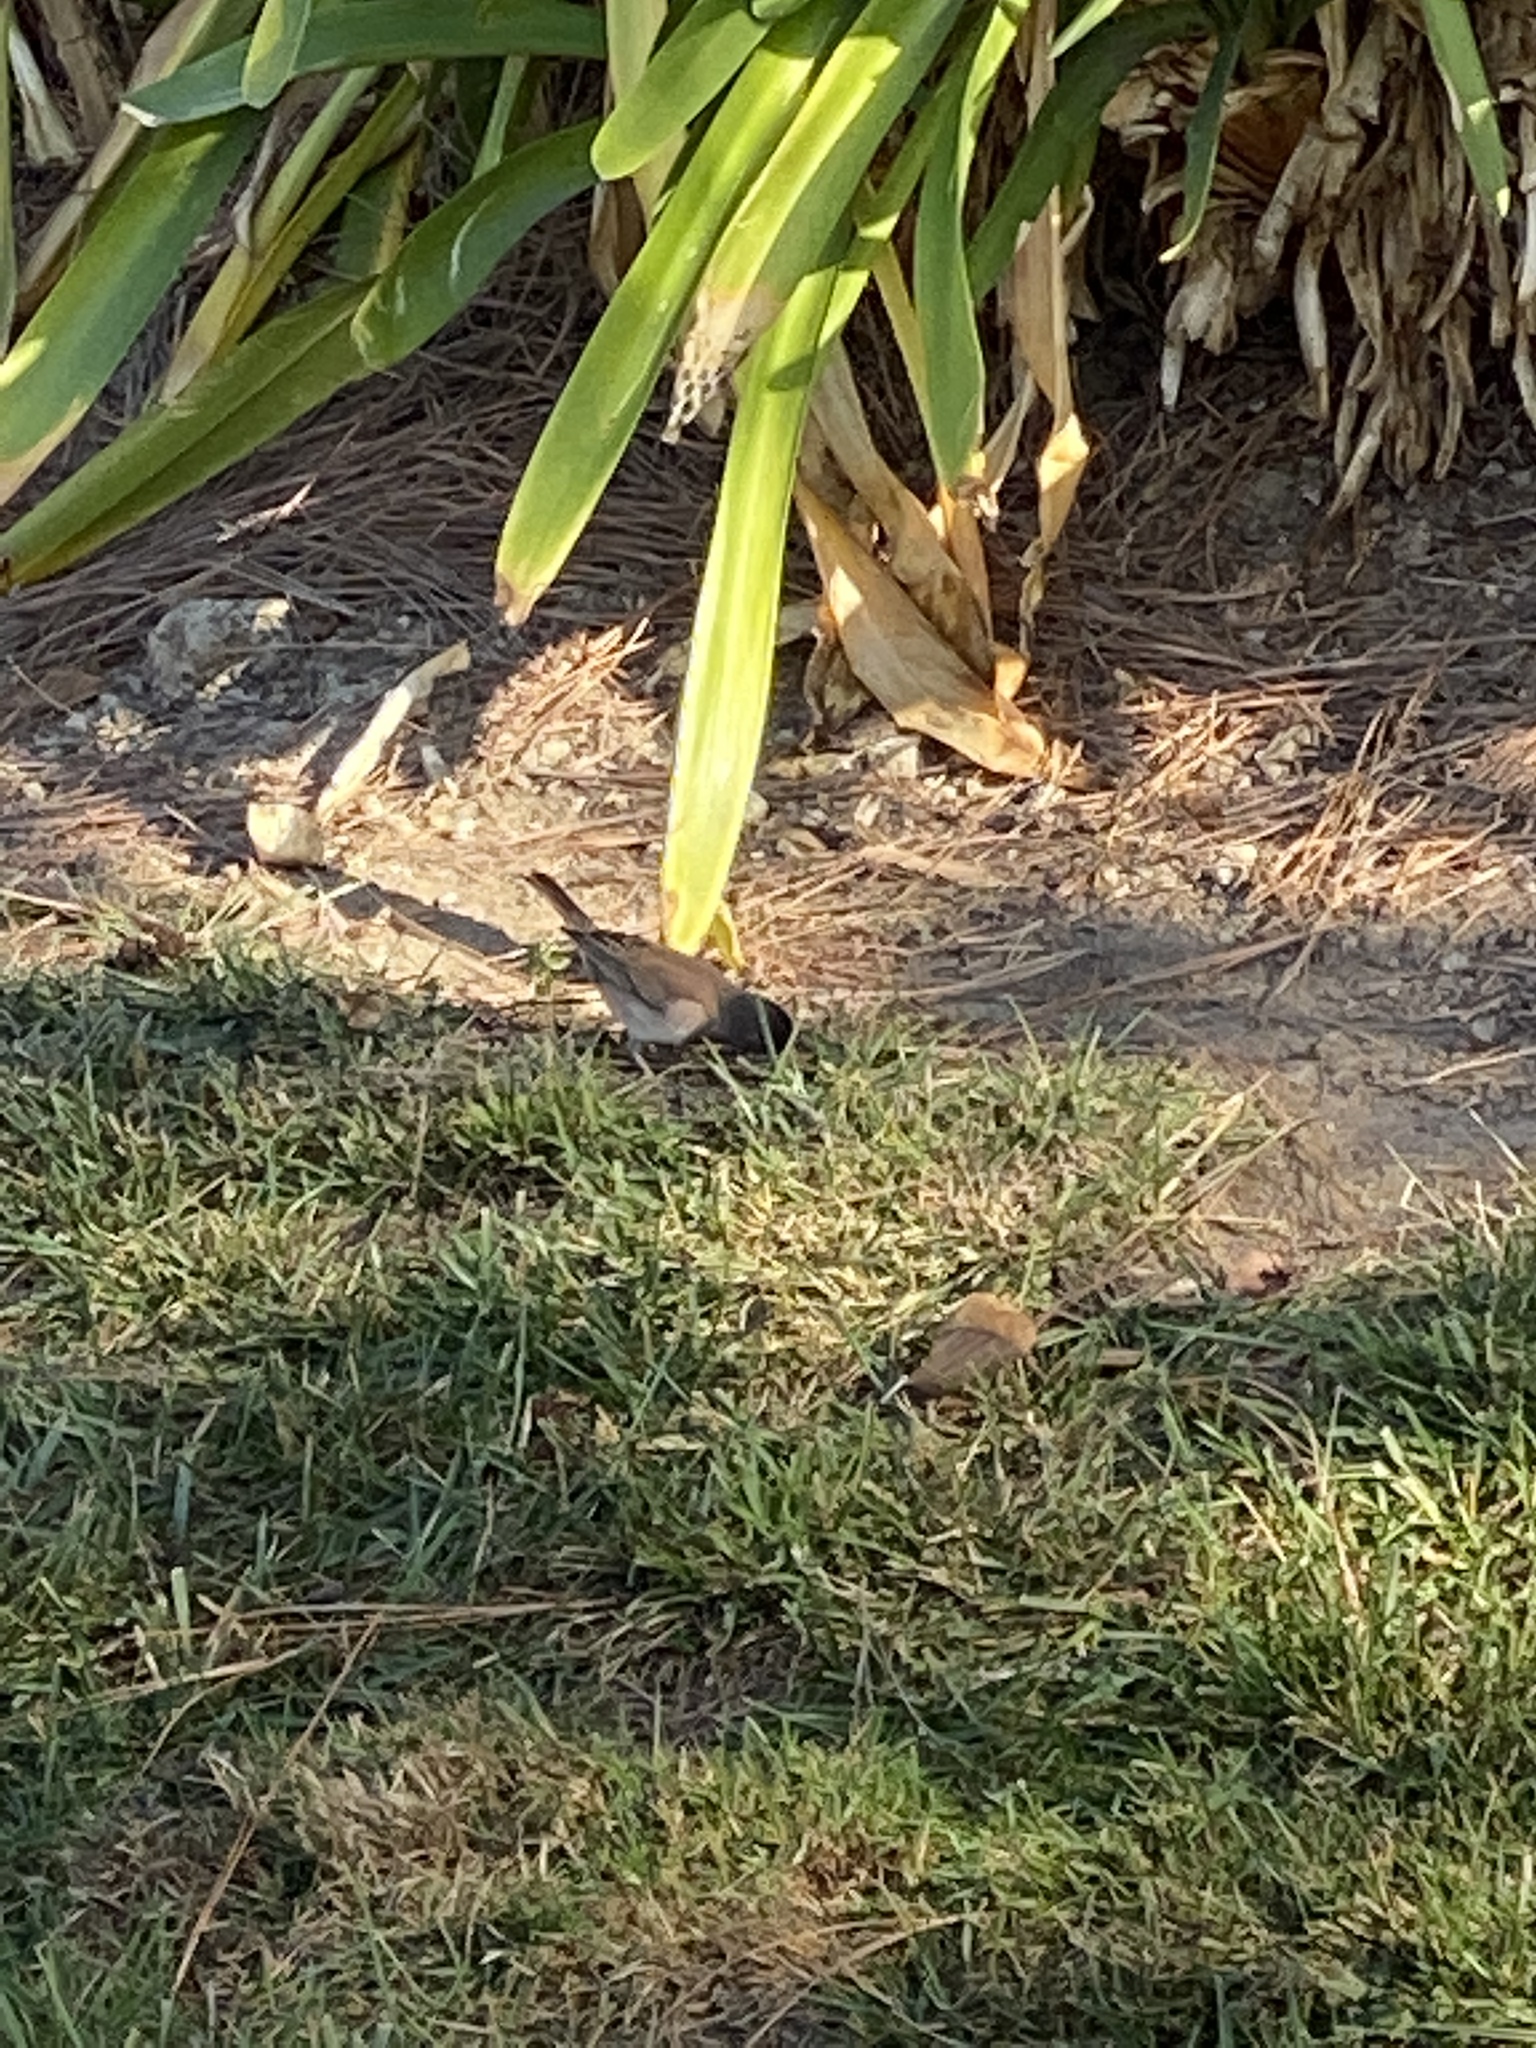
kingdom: Animalia
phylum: Chordata
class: Aves
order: Passeriformes
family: Passerellidae
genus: Junco
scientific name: Junco hyemalis
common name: Dark-eyed junco
